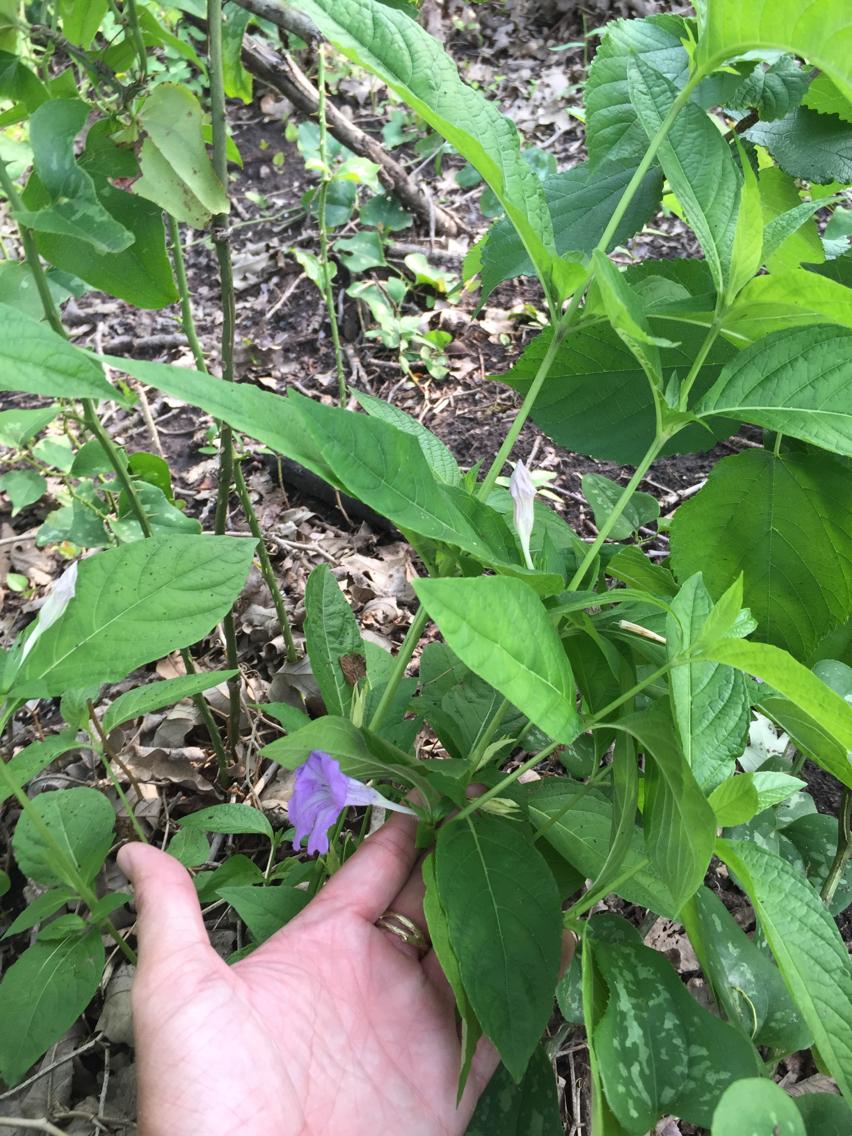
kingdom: Plantae
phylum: Tracheophyta
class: Magnoliopsida
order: Lamiales
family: Acanthaceae
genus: Ruellia
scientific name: Ruellia strepens
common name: Limestone wild petunia
